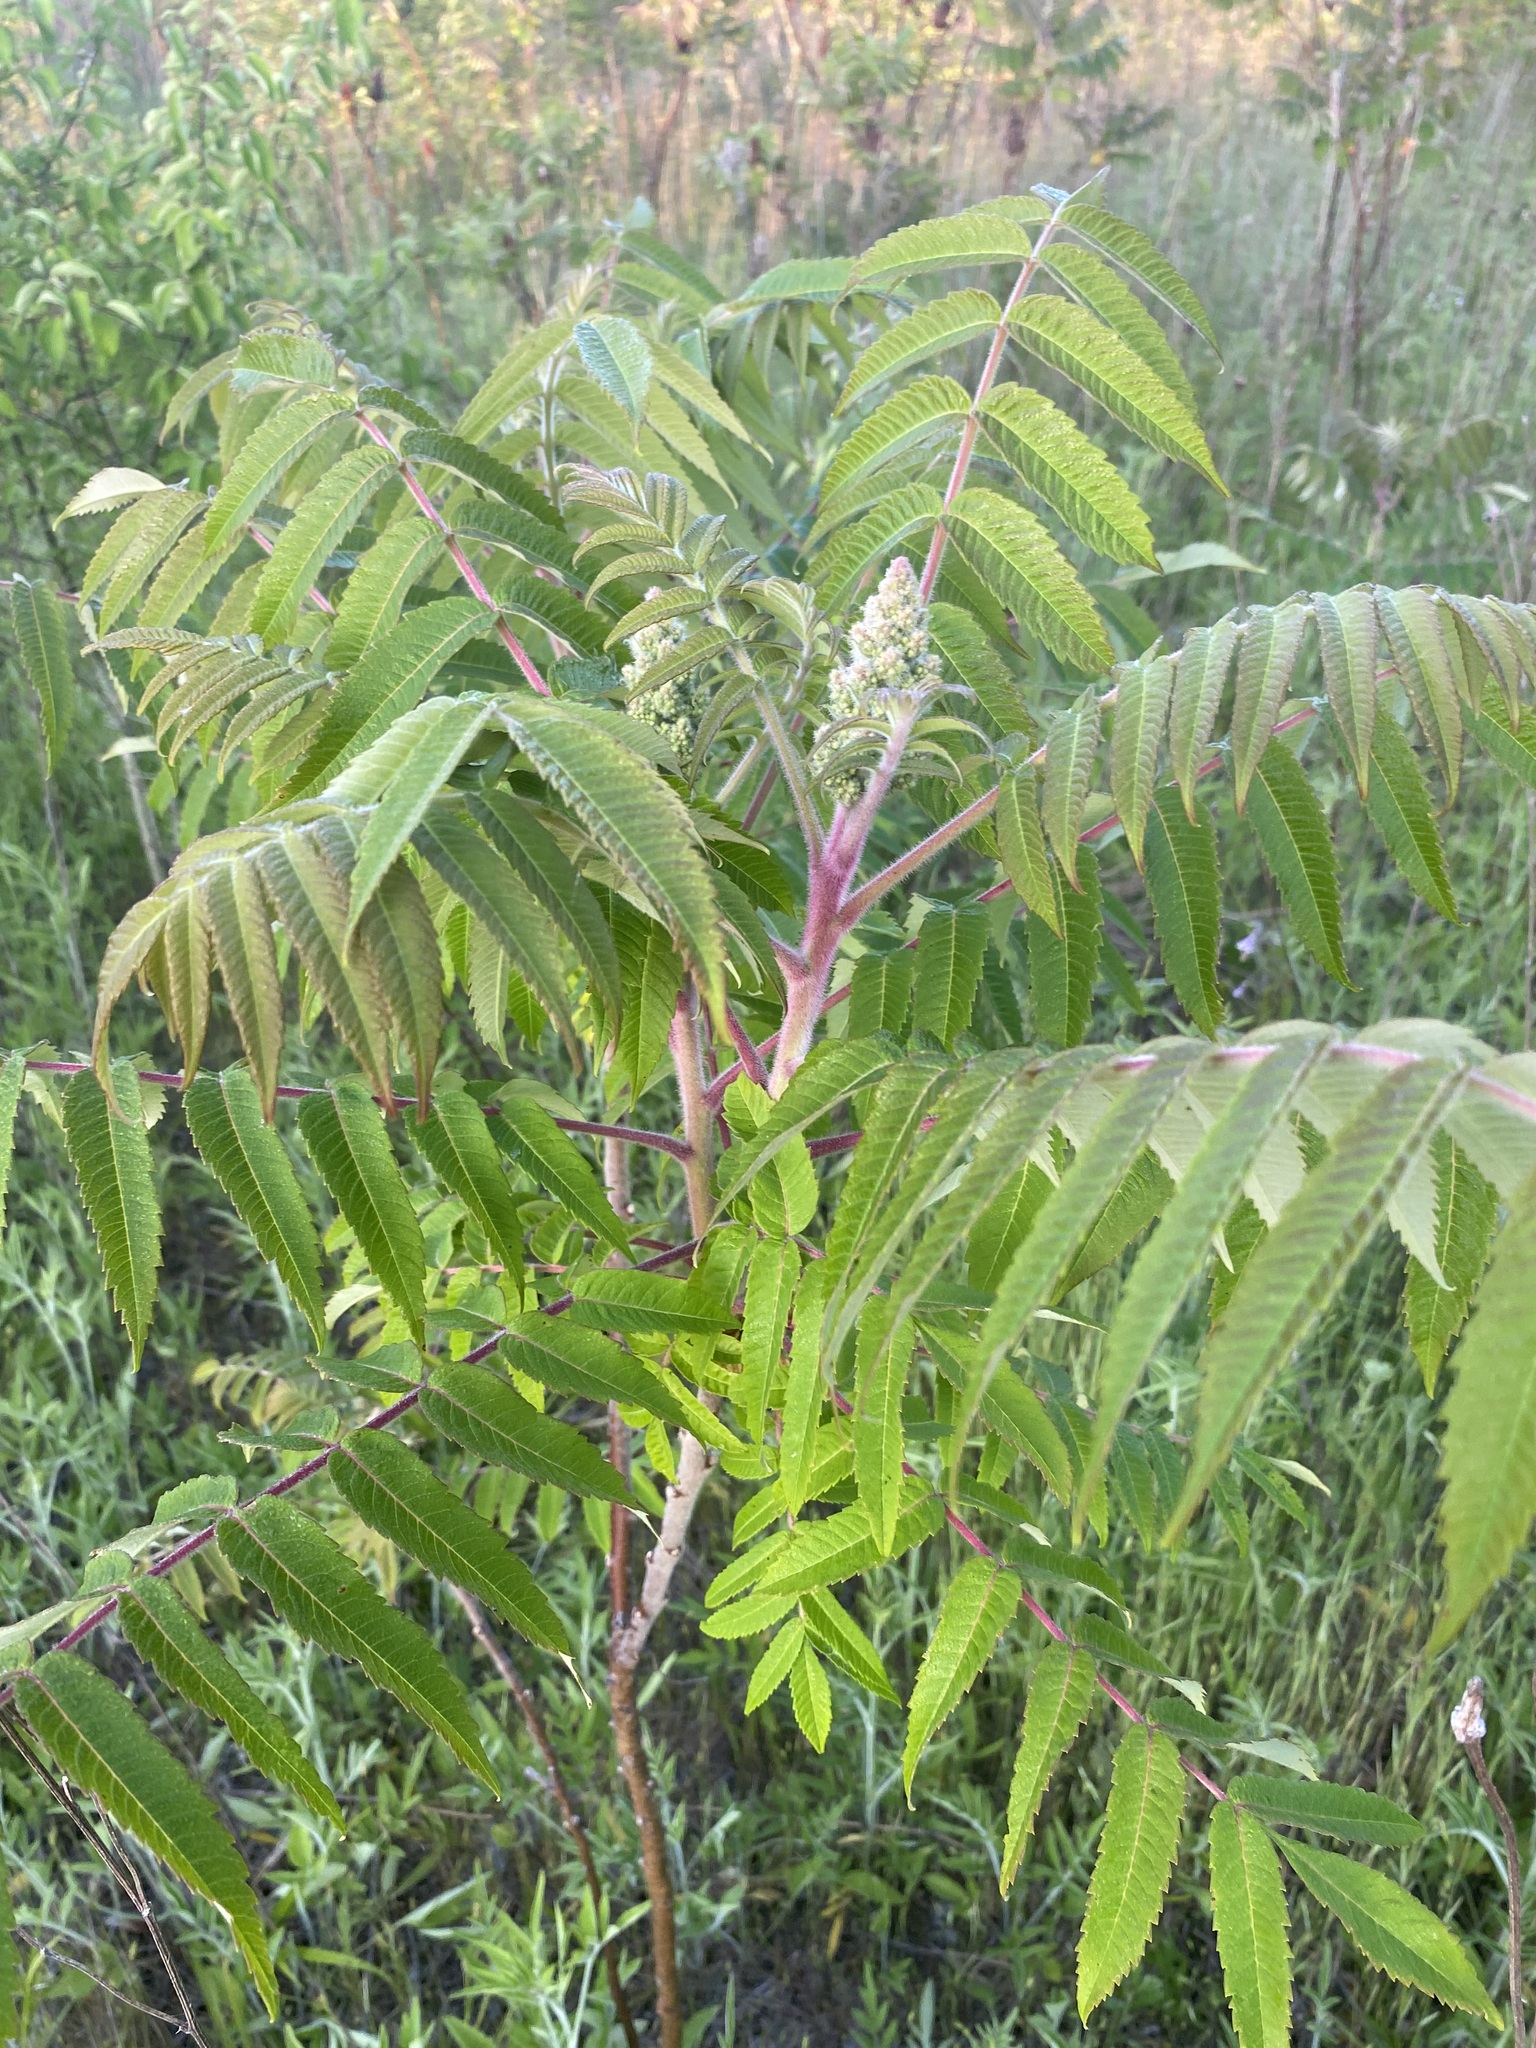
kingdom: Plantae
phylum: Tracheophyta
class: Magnoliopsida
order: Sapindales
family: Anacardiaceae
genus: Rhus
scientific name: Rhus typhina
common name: Staghorn sumac
